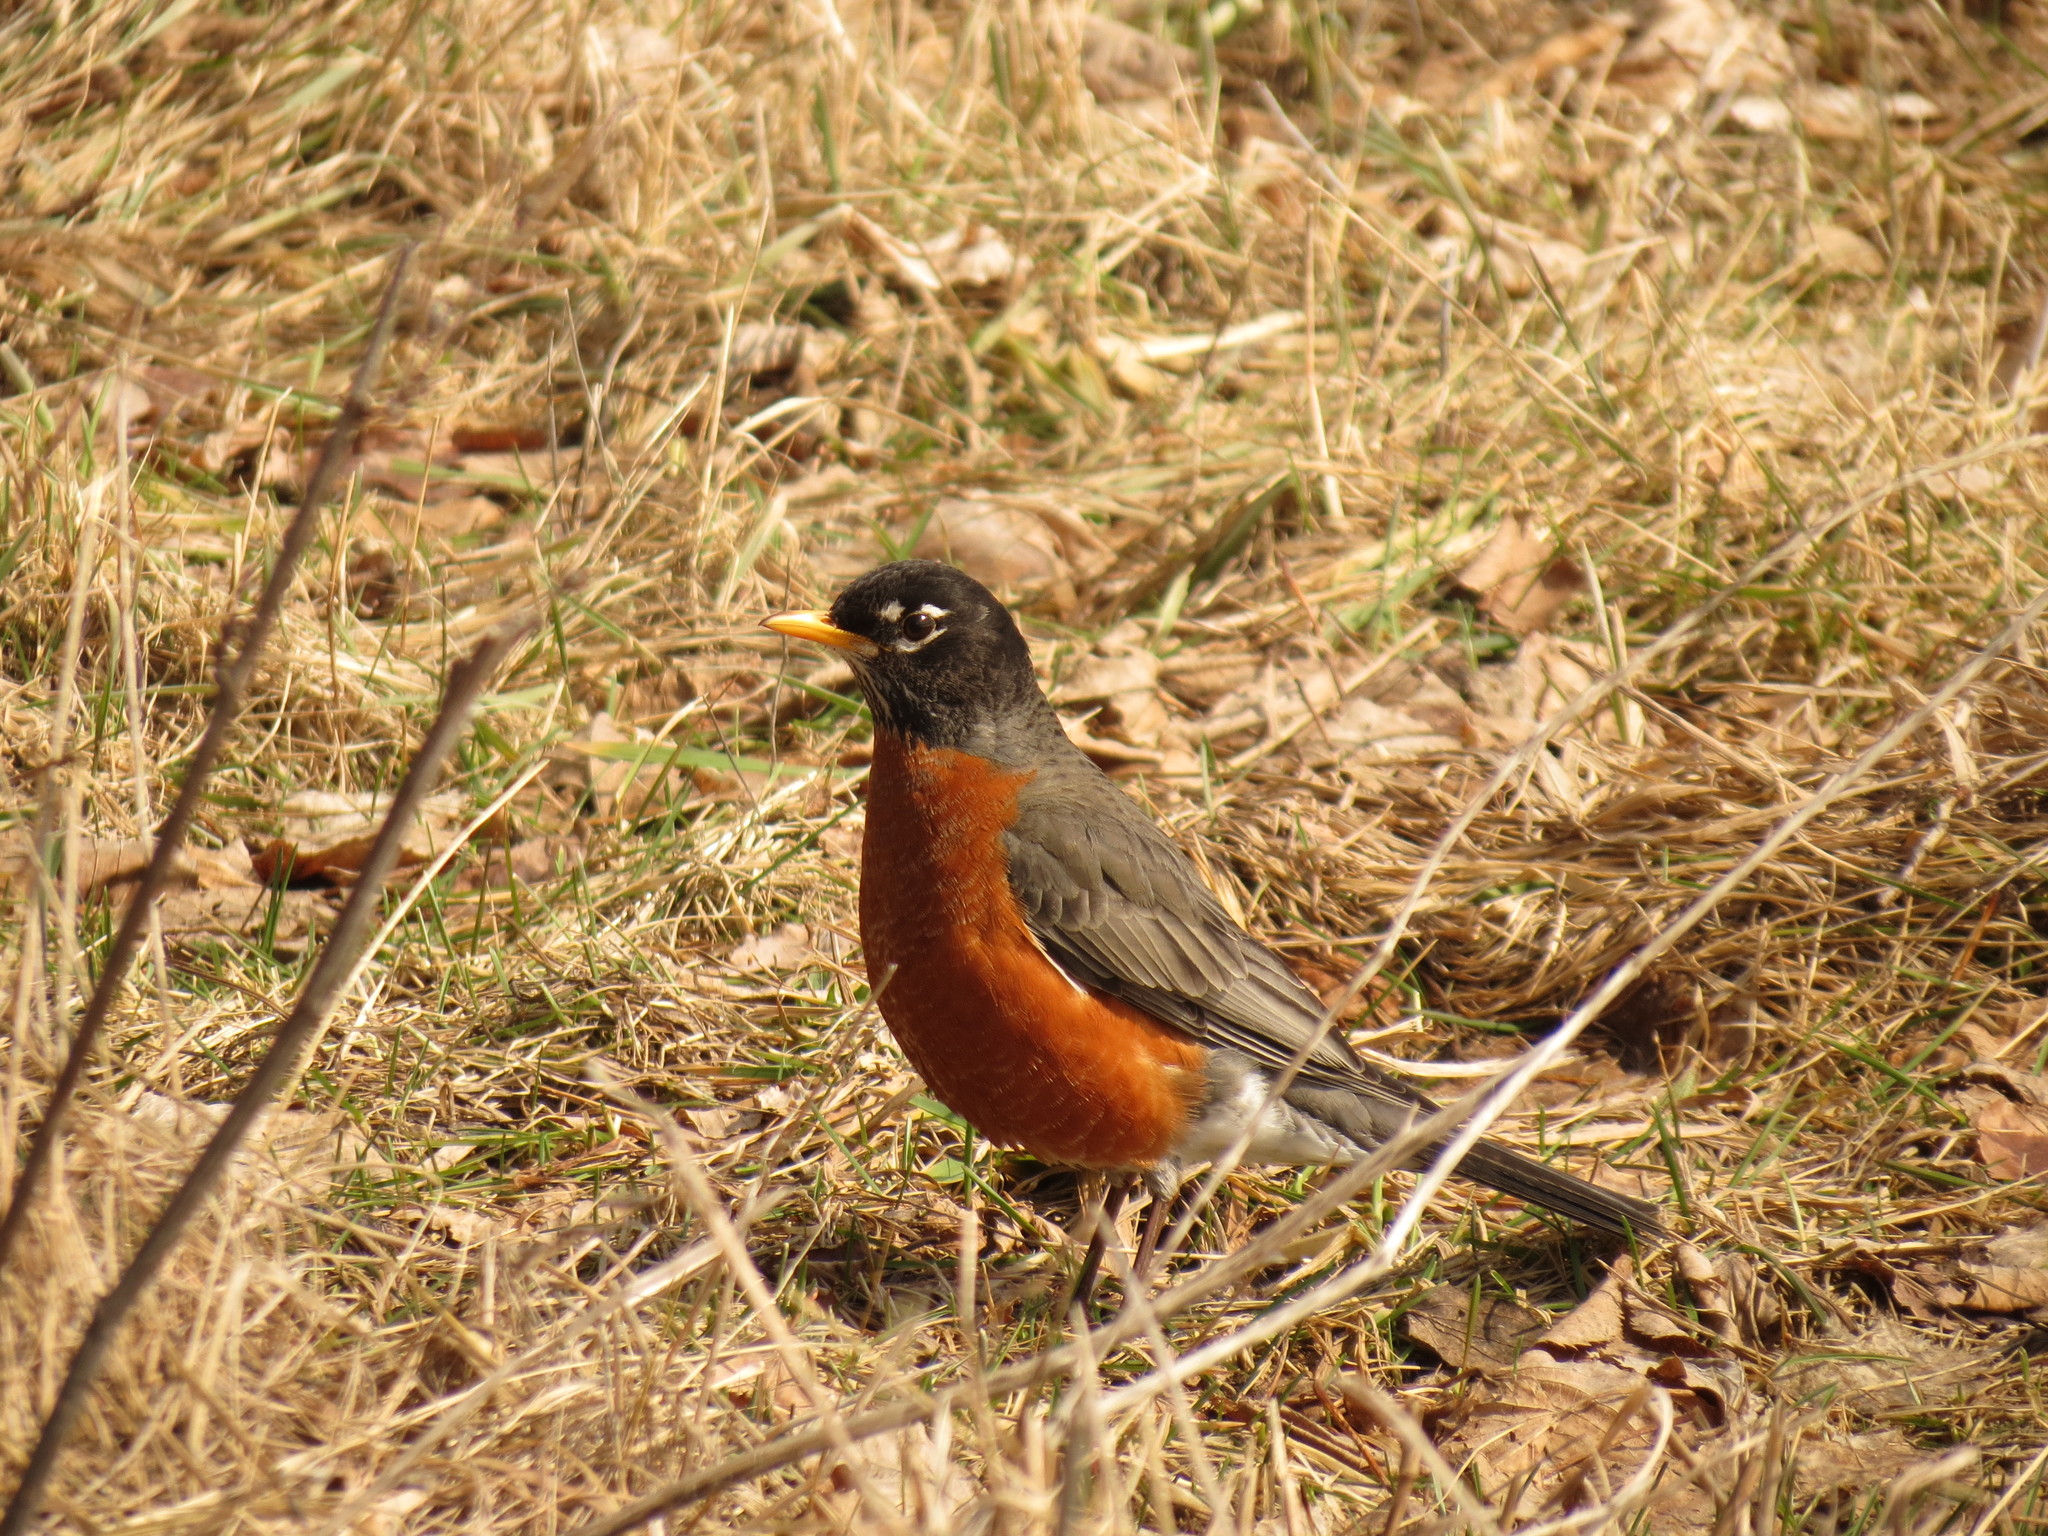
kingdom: Animalia
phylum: Chordata
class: Aves
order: Passeriformes
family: Turdidae
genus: Turdus
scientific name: Turdus migratorius
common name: American robin
